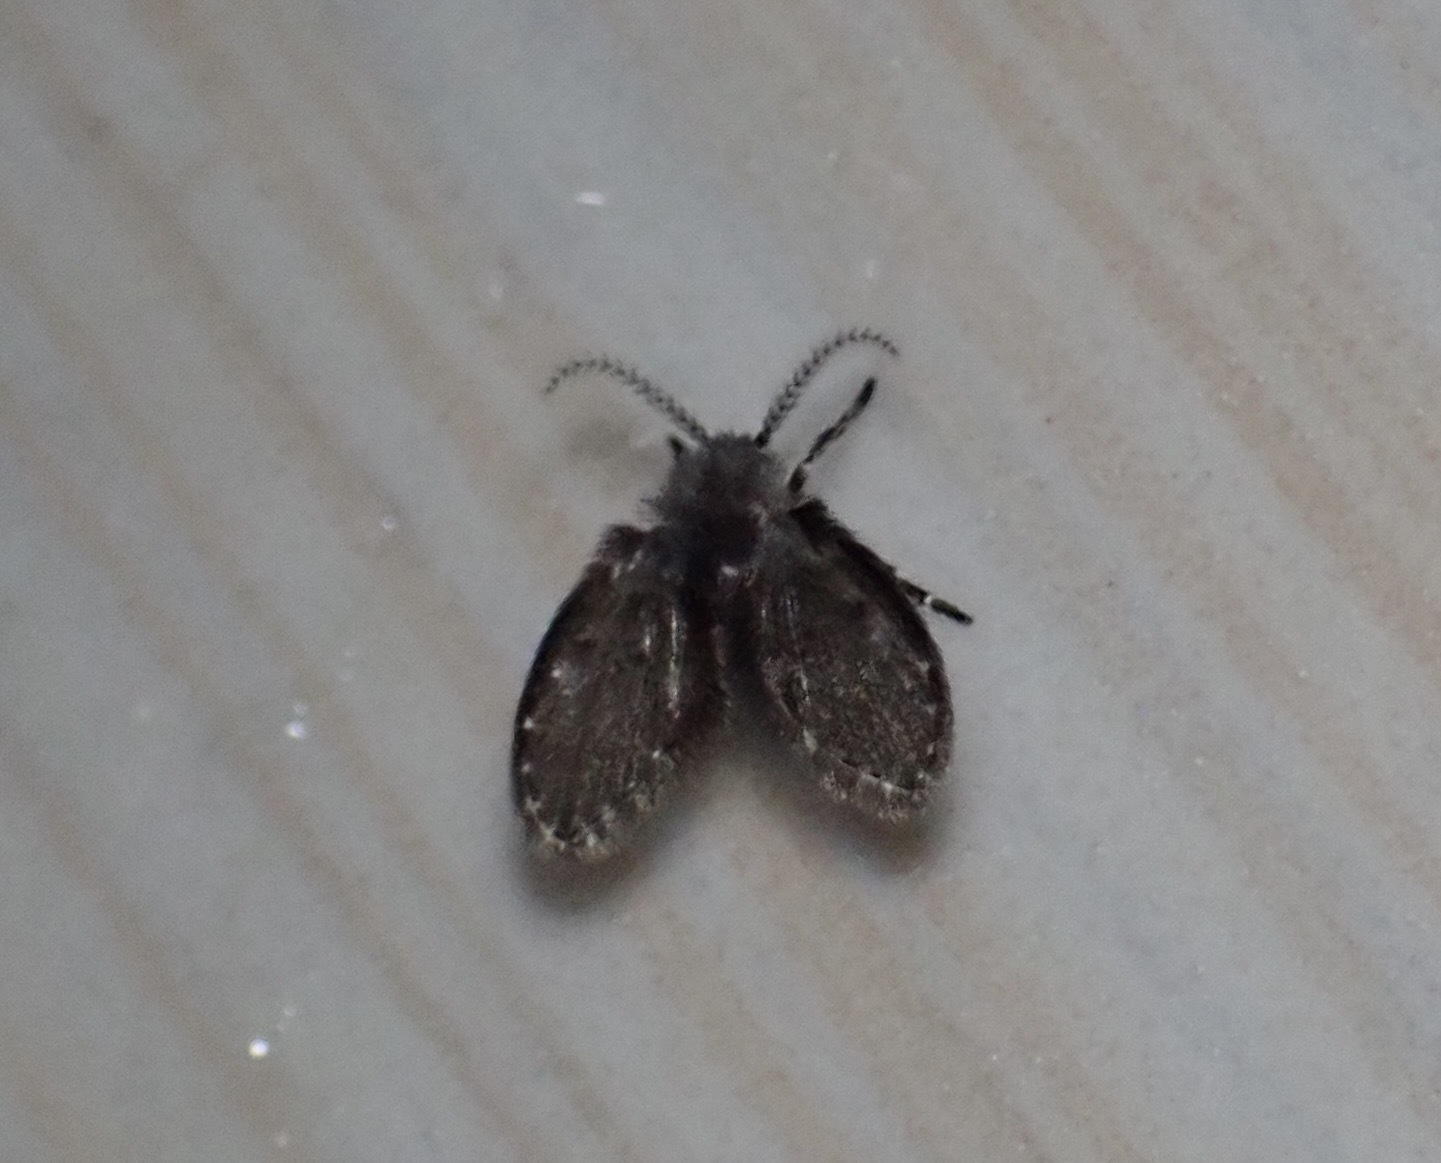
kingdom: Animalia
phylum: Arthropoda
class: Insecta
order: Diptera
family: Psychodidae
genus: Clogmia
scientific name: Clogmia albipunctatus
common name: White-spotted moth fly
